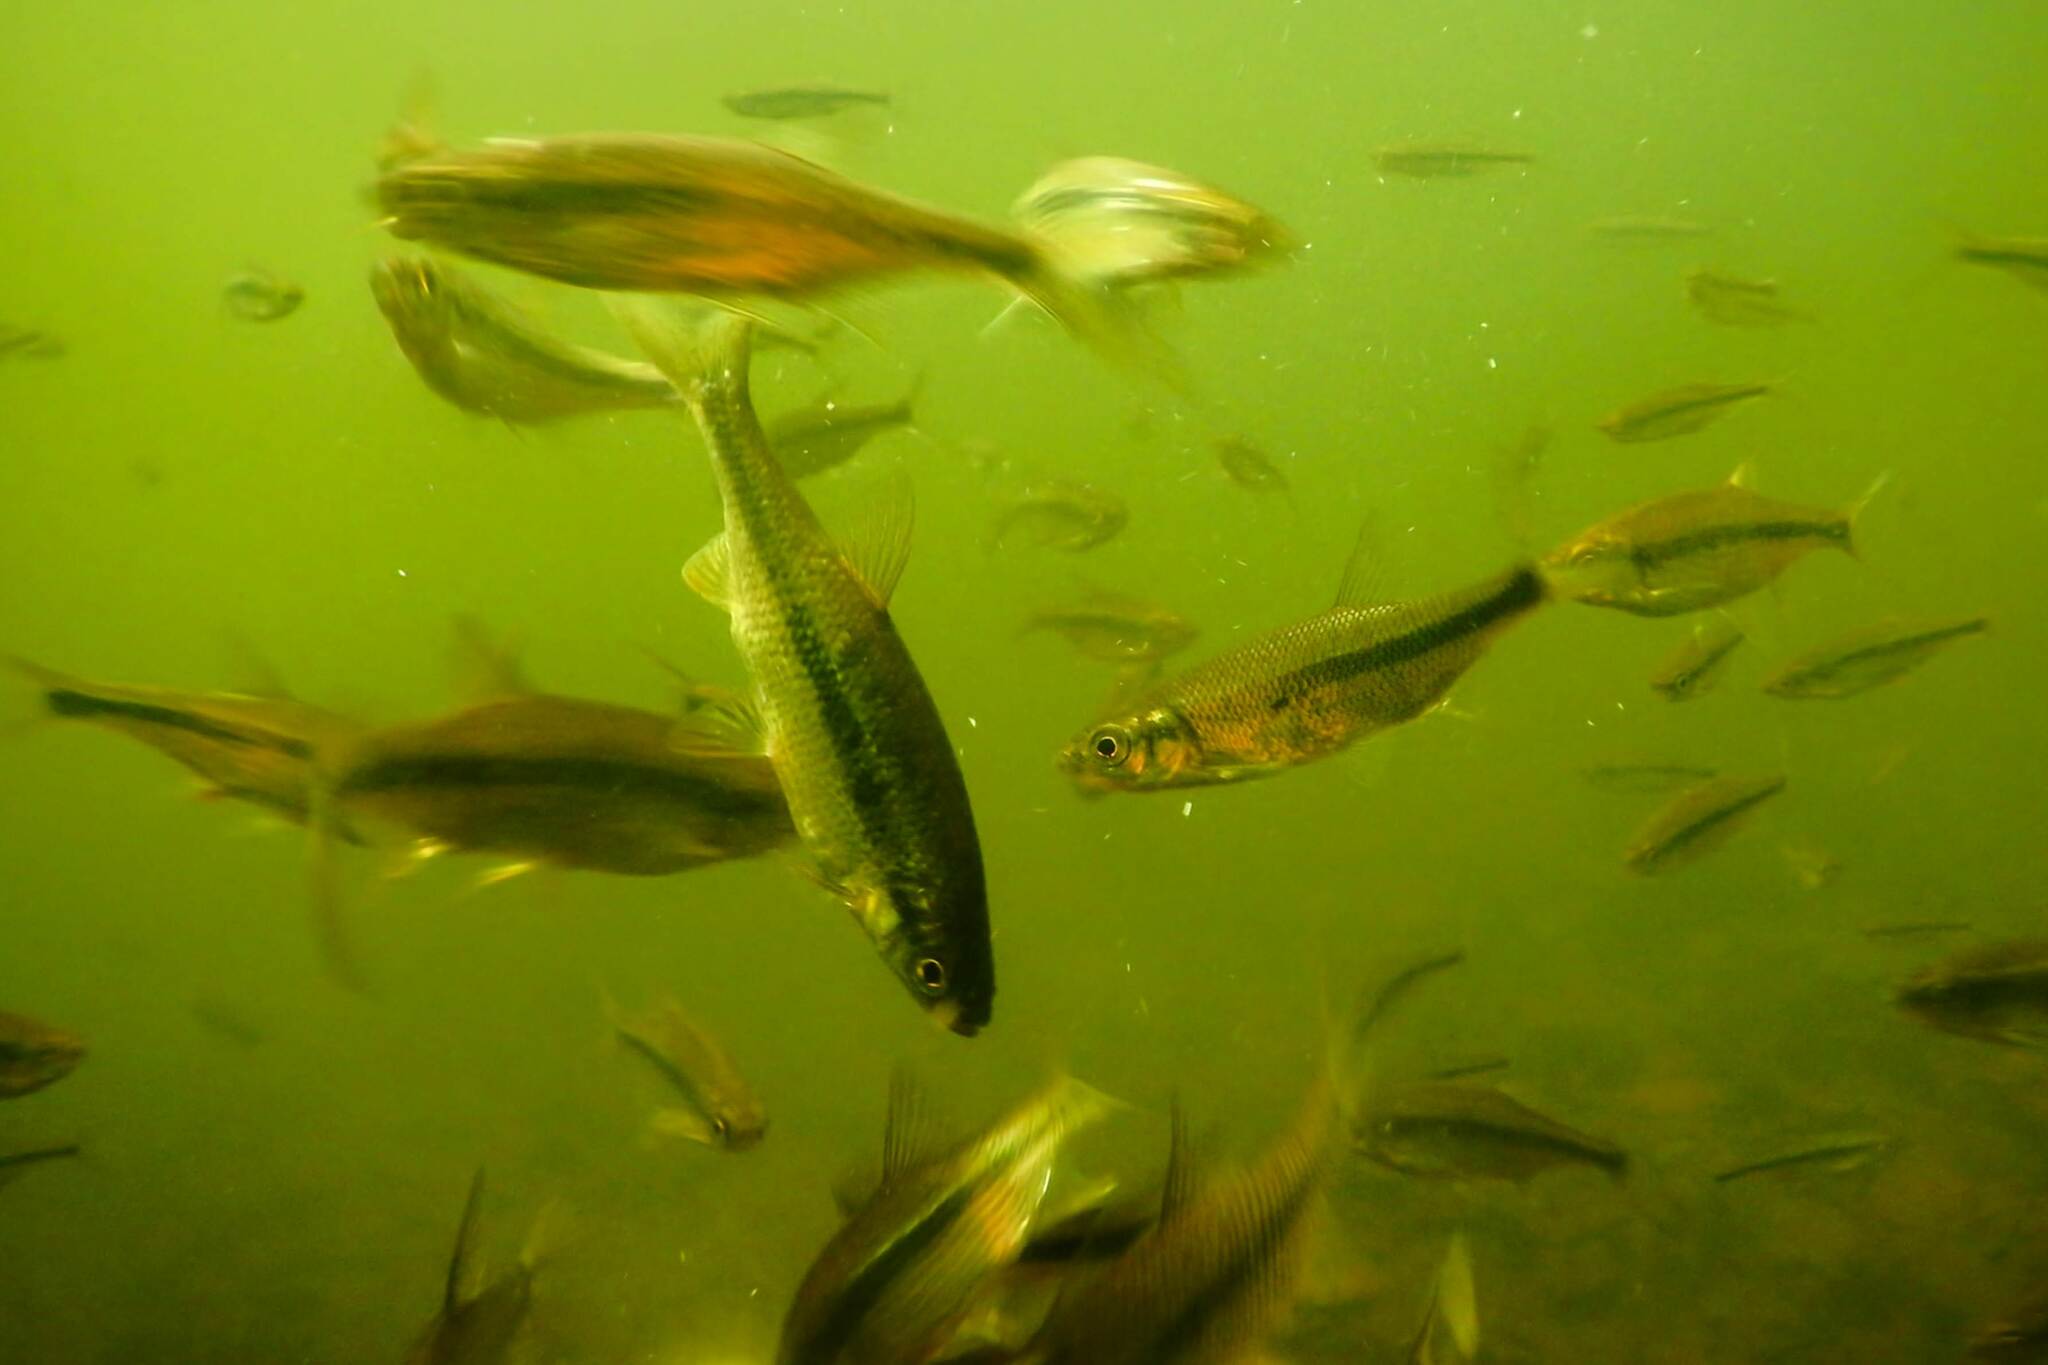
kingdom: Animalia
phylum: Chordata
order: Cypriniformes
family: Cyprinidae
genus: Notemigonus
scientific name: Notemigonus crysoleucas
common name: Golden shiner
